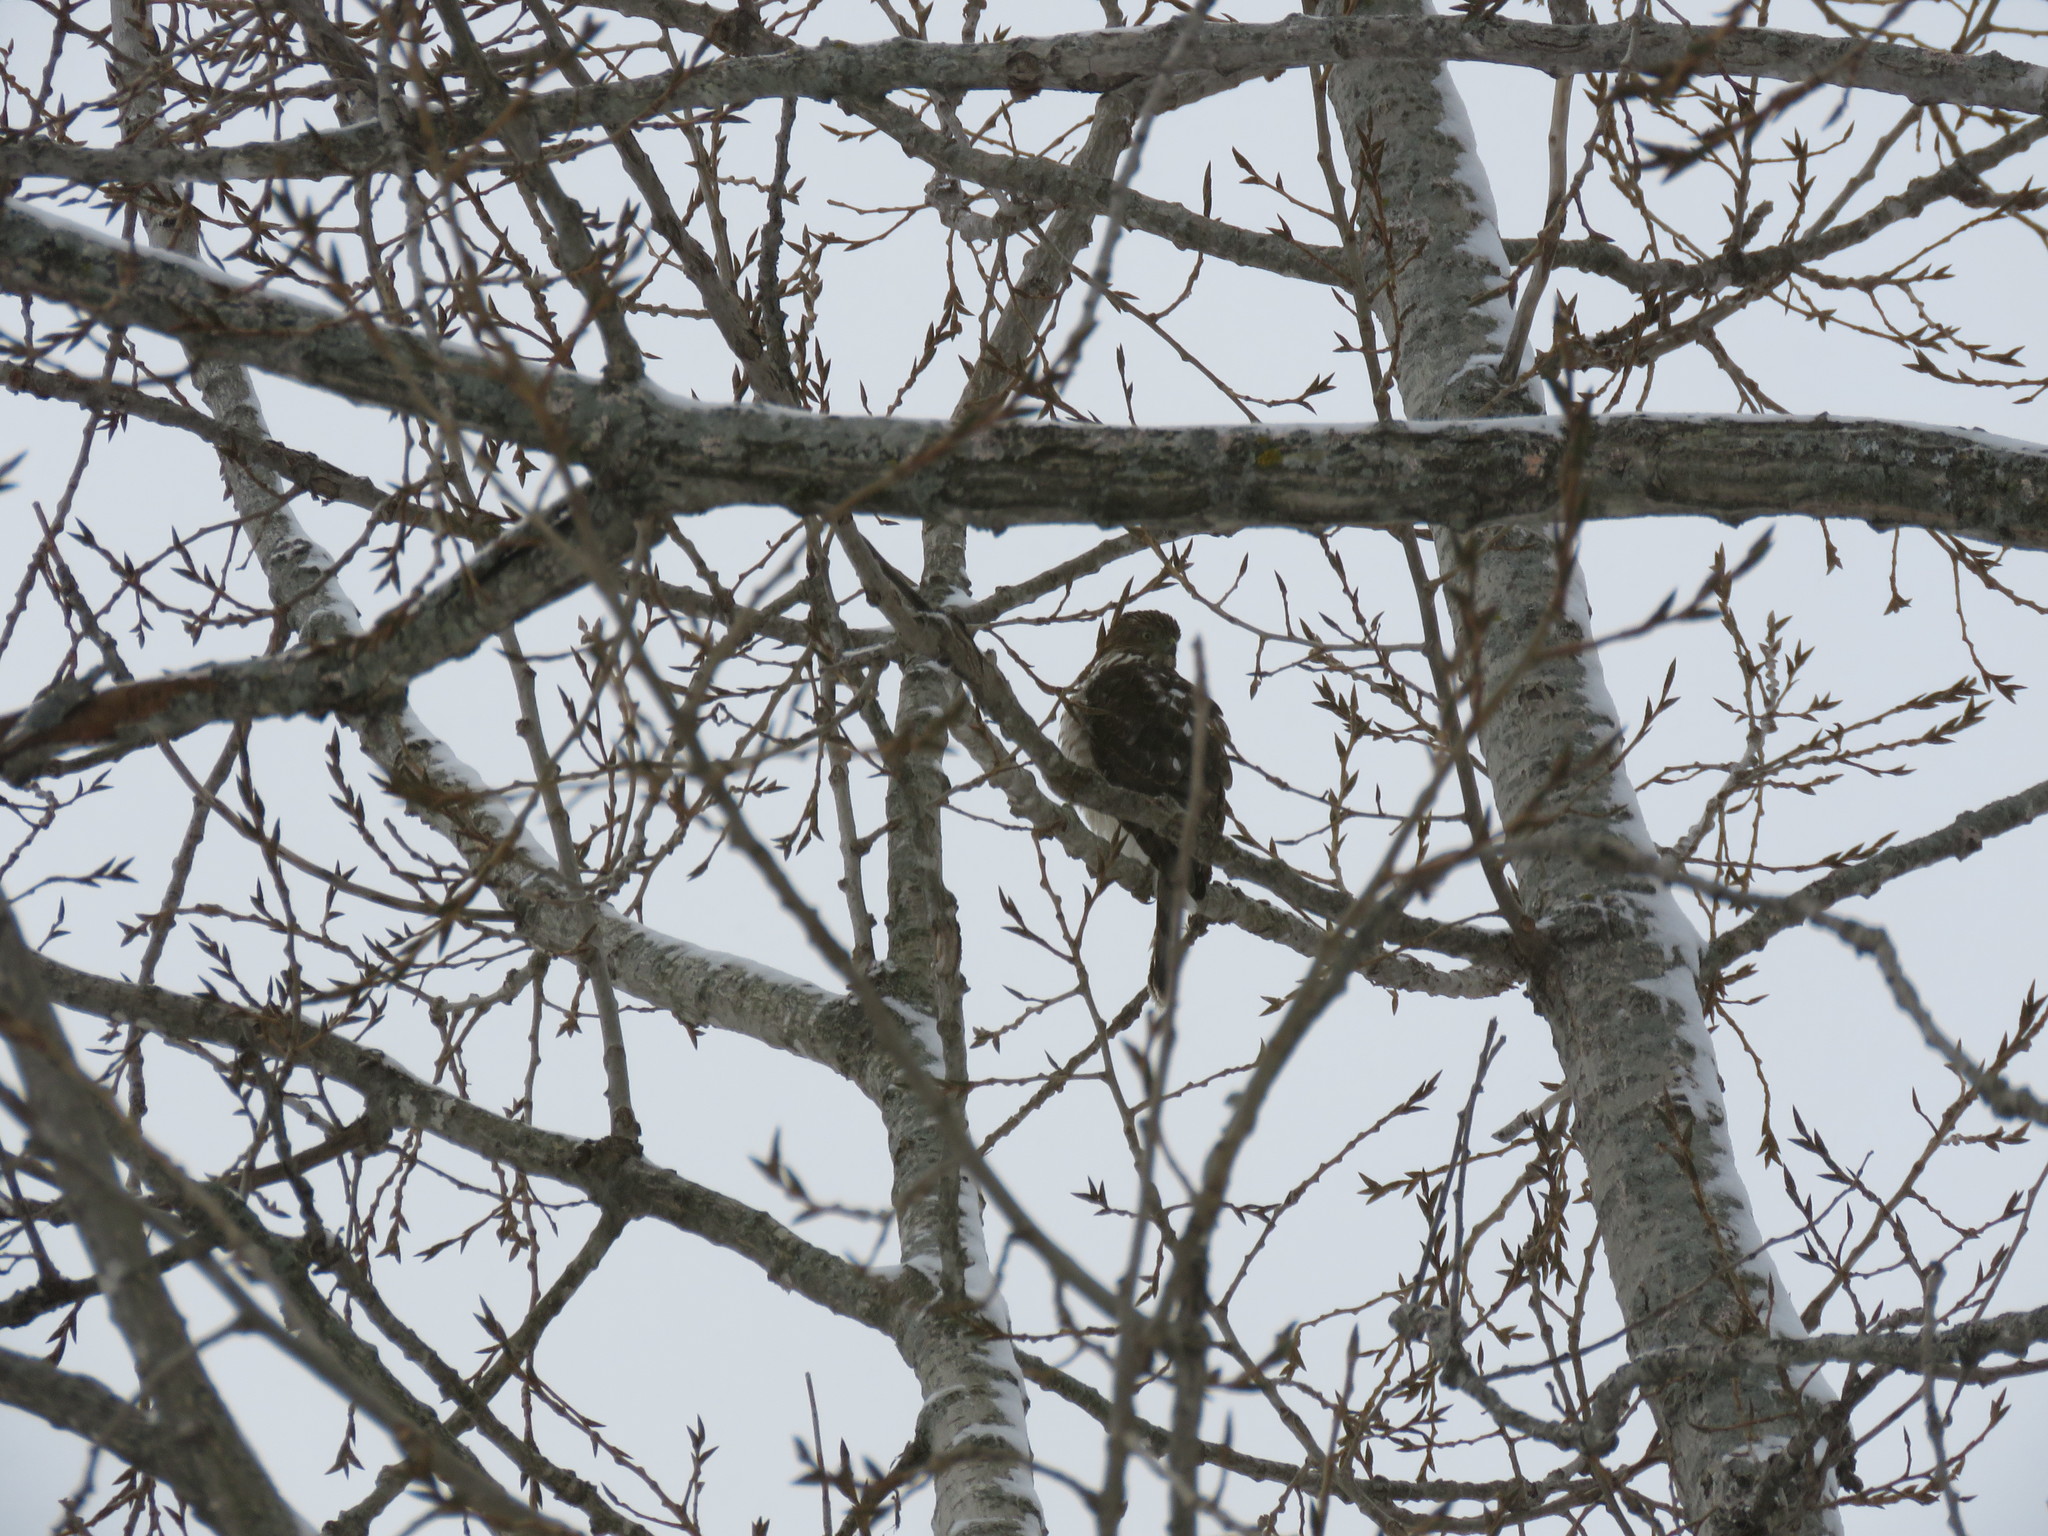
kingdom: Animalia
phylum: Chordata
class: Aves
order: Accipitriformes
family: Accipitridae
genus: Accipiter
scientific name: Accipiter cooperii
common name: Cooper's hawk
